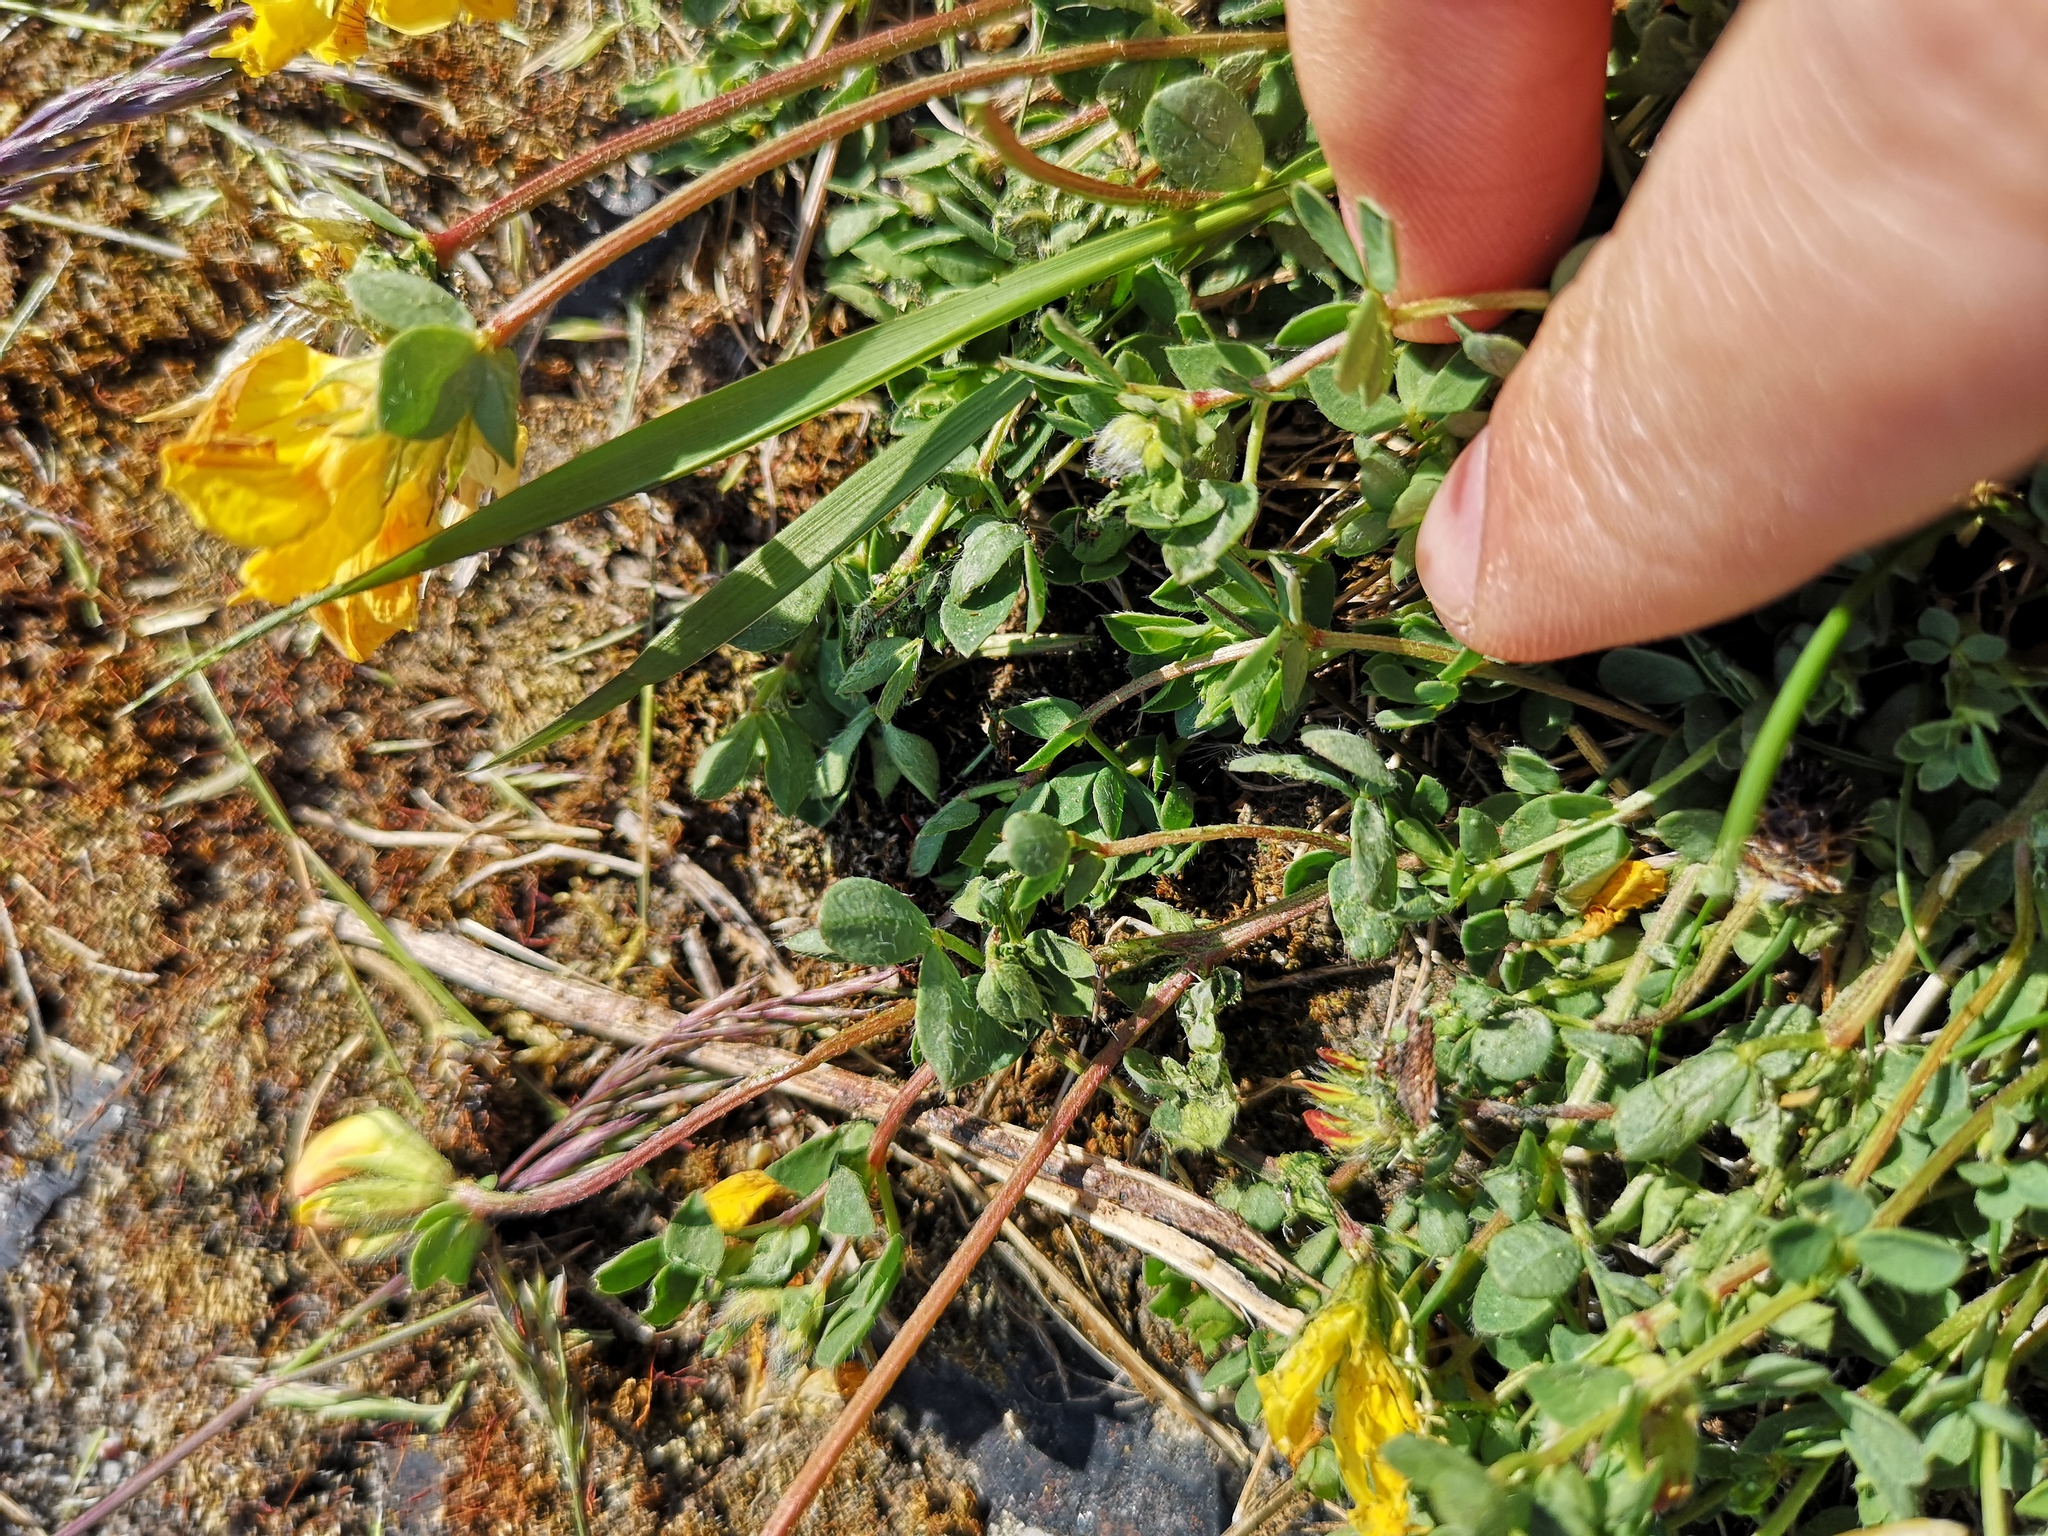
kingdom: Plantae
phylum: Tracheophyta
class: Magnoliopsida
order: Fabales
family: Fabaceae
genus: Lotus
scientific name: Lotus corniculatus
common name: Common bird's-foot-trefoil
